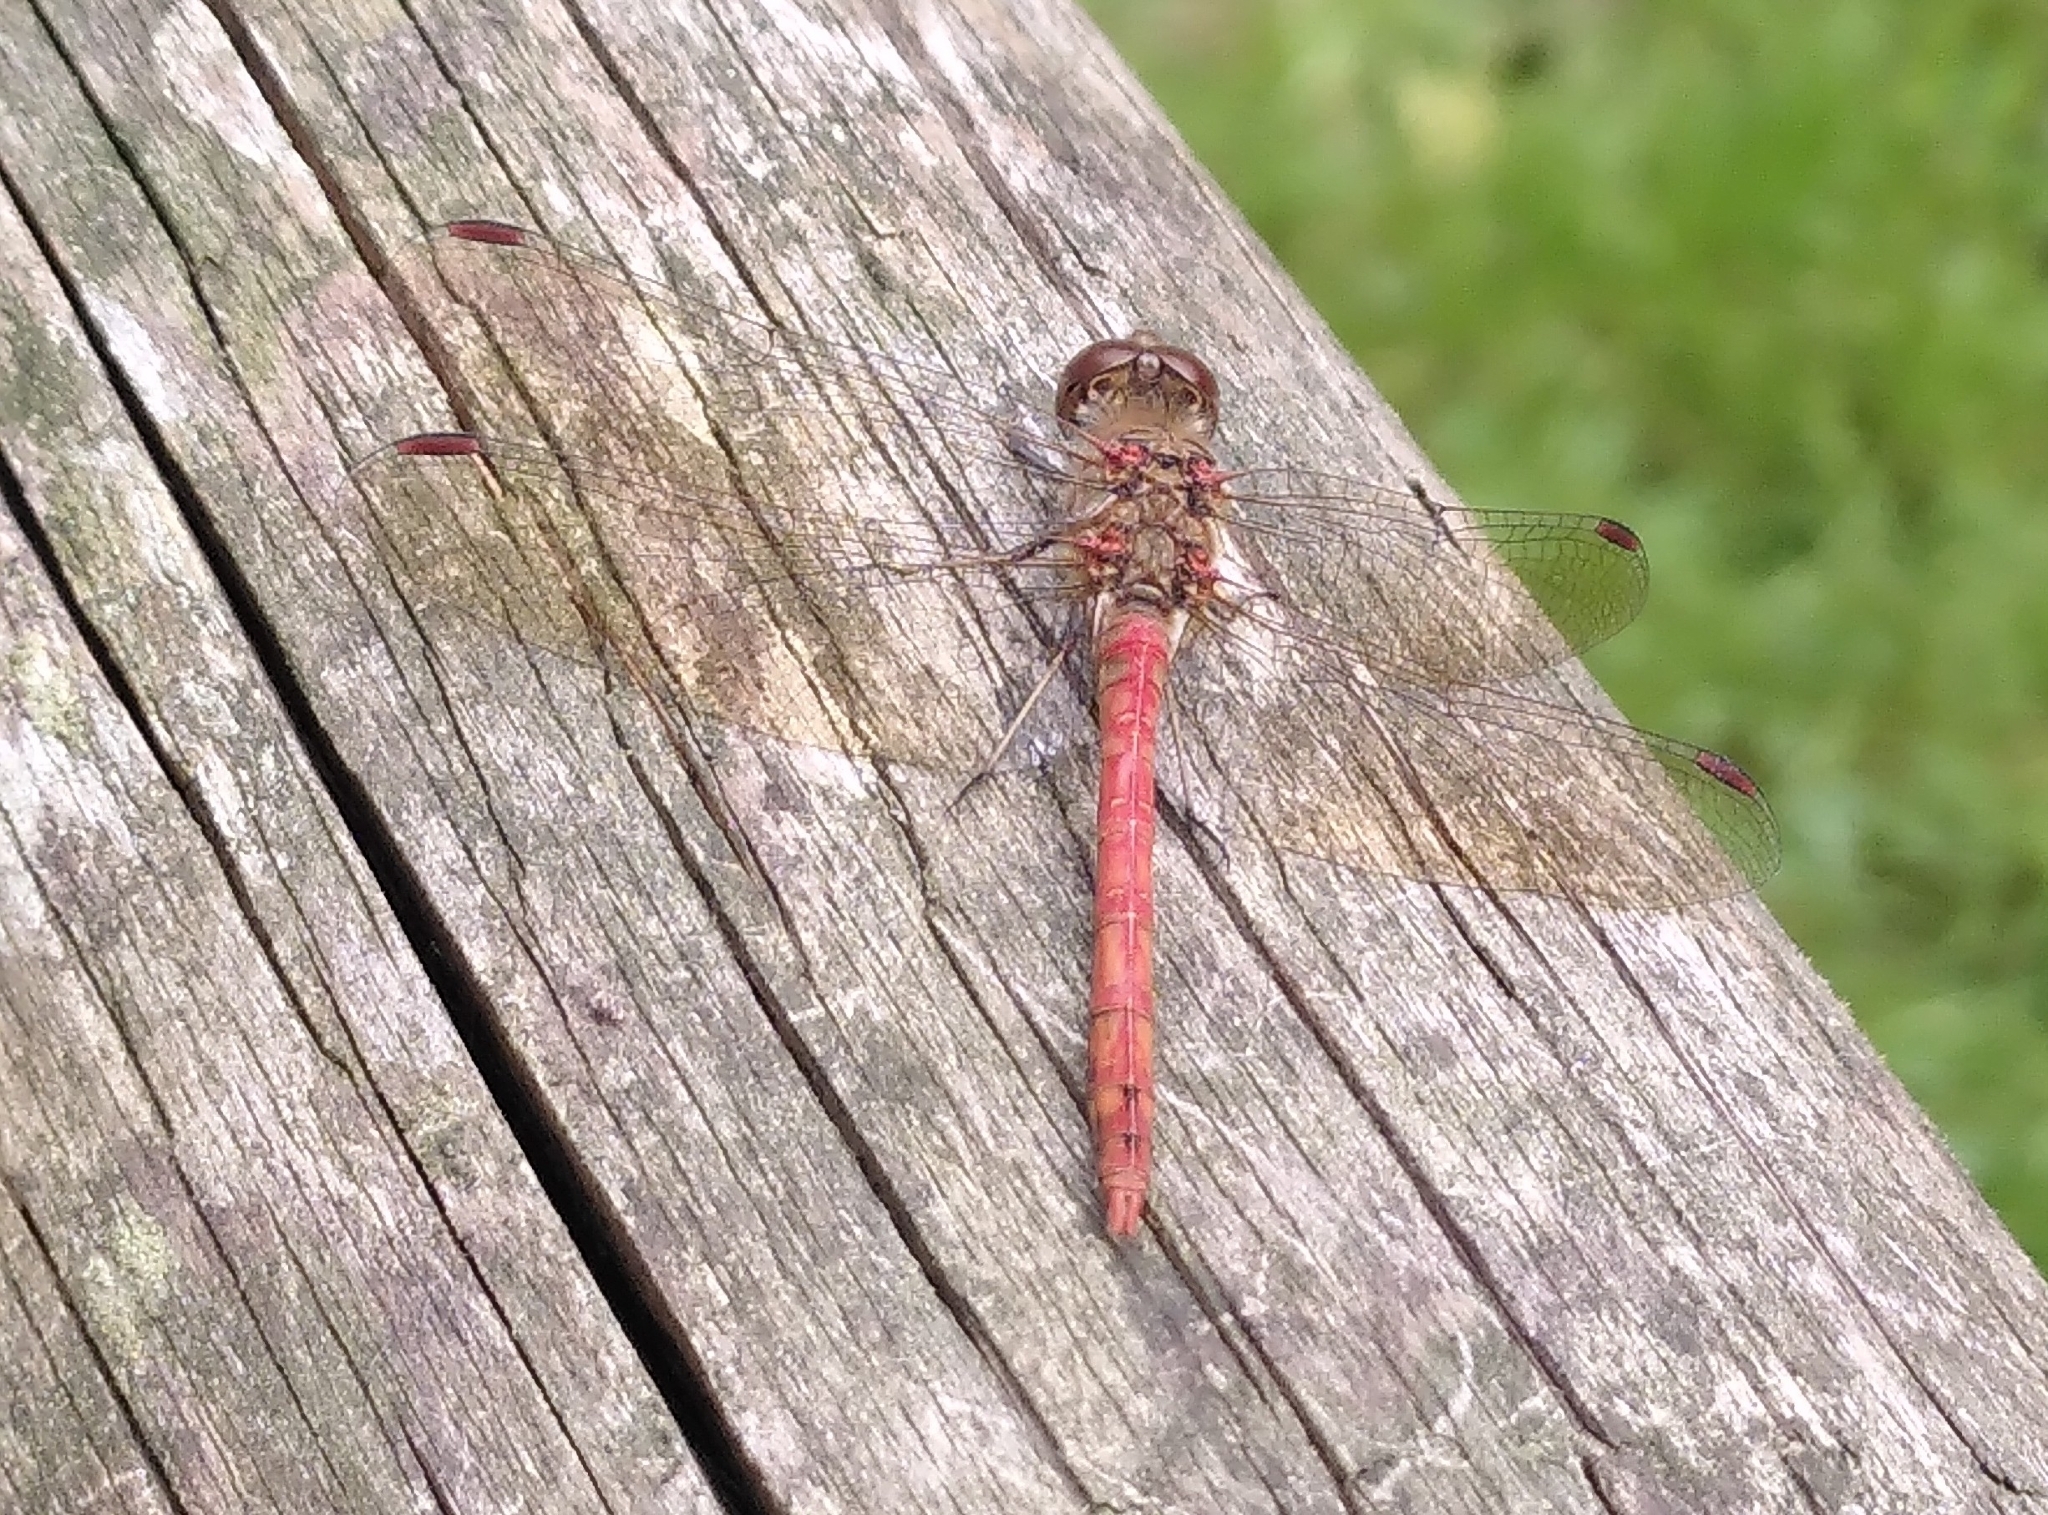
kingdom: Animalia
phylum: Arthropoda
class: Insecta
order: Odonata
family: Libellulidae
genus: Sympetrum
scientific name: Sympetrum striolatum
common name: Common darter
